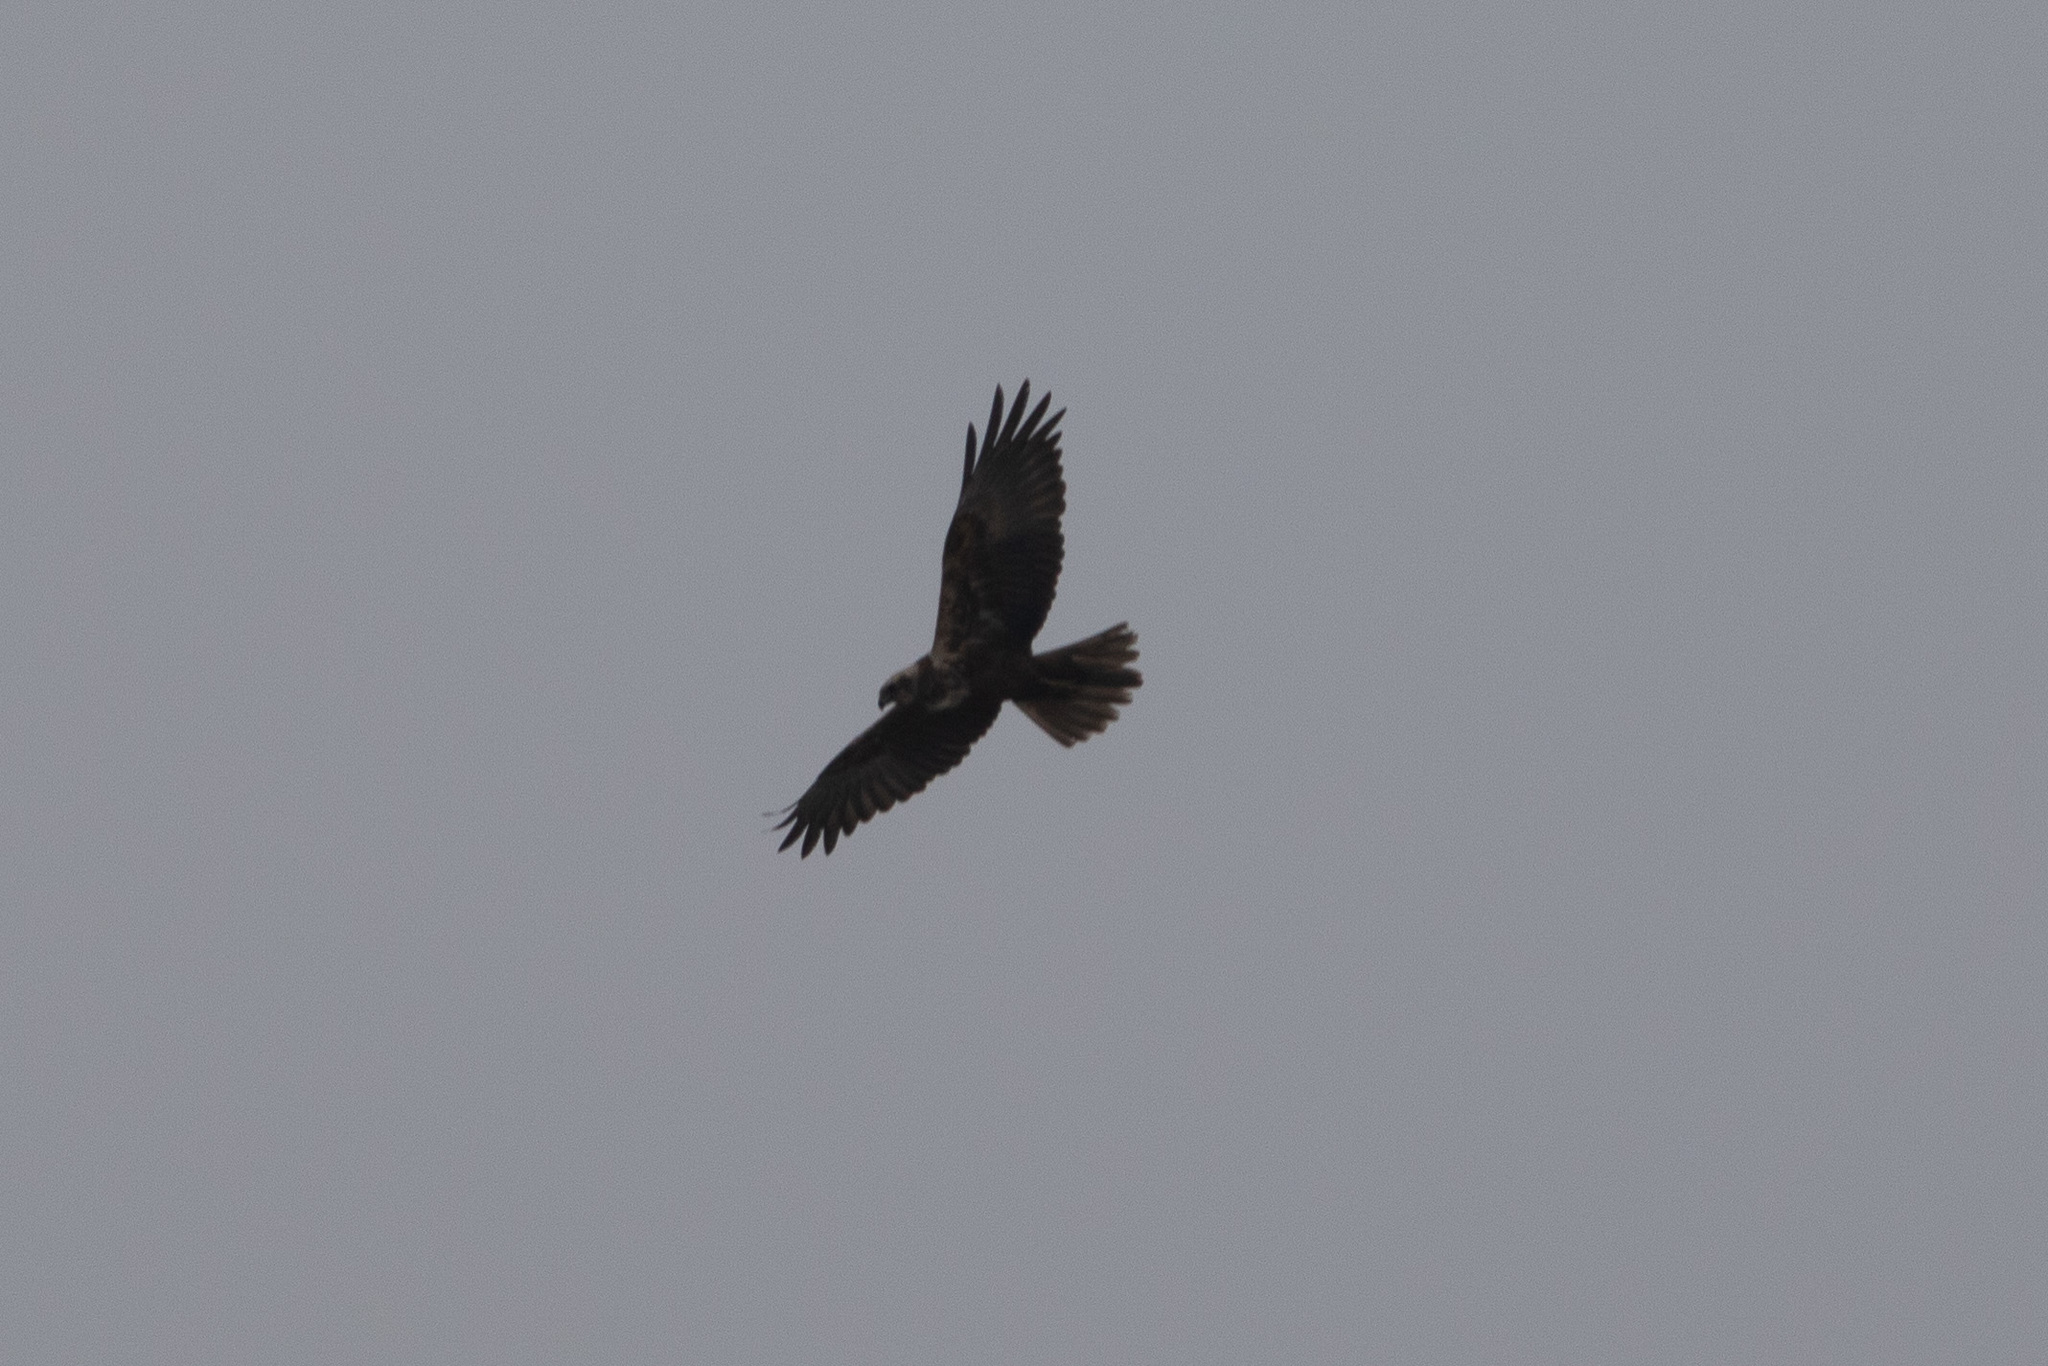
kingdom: Animalia
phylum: Chordata
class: Aves
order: Accipitriformes
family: Accipitridae
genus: Circus
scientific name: Circus aeruginosus
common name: Western marsh harrier
